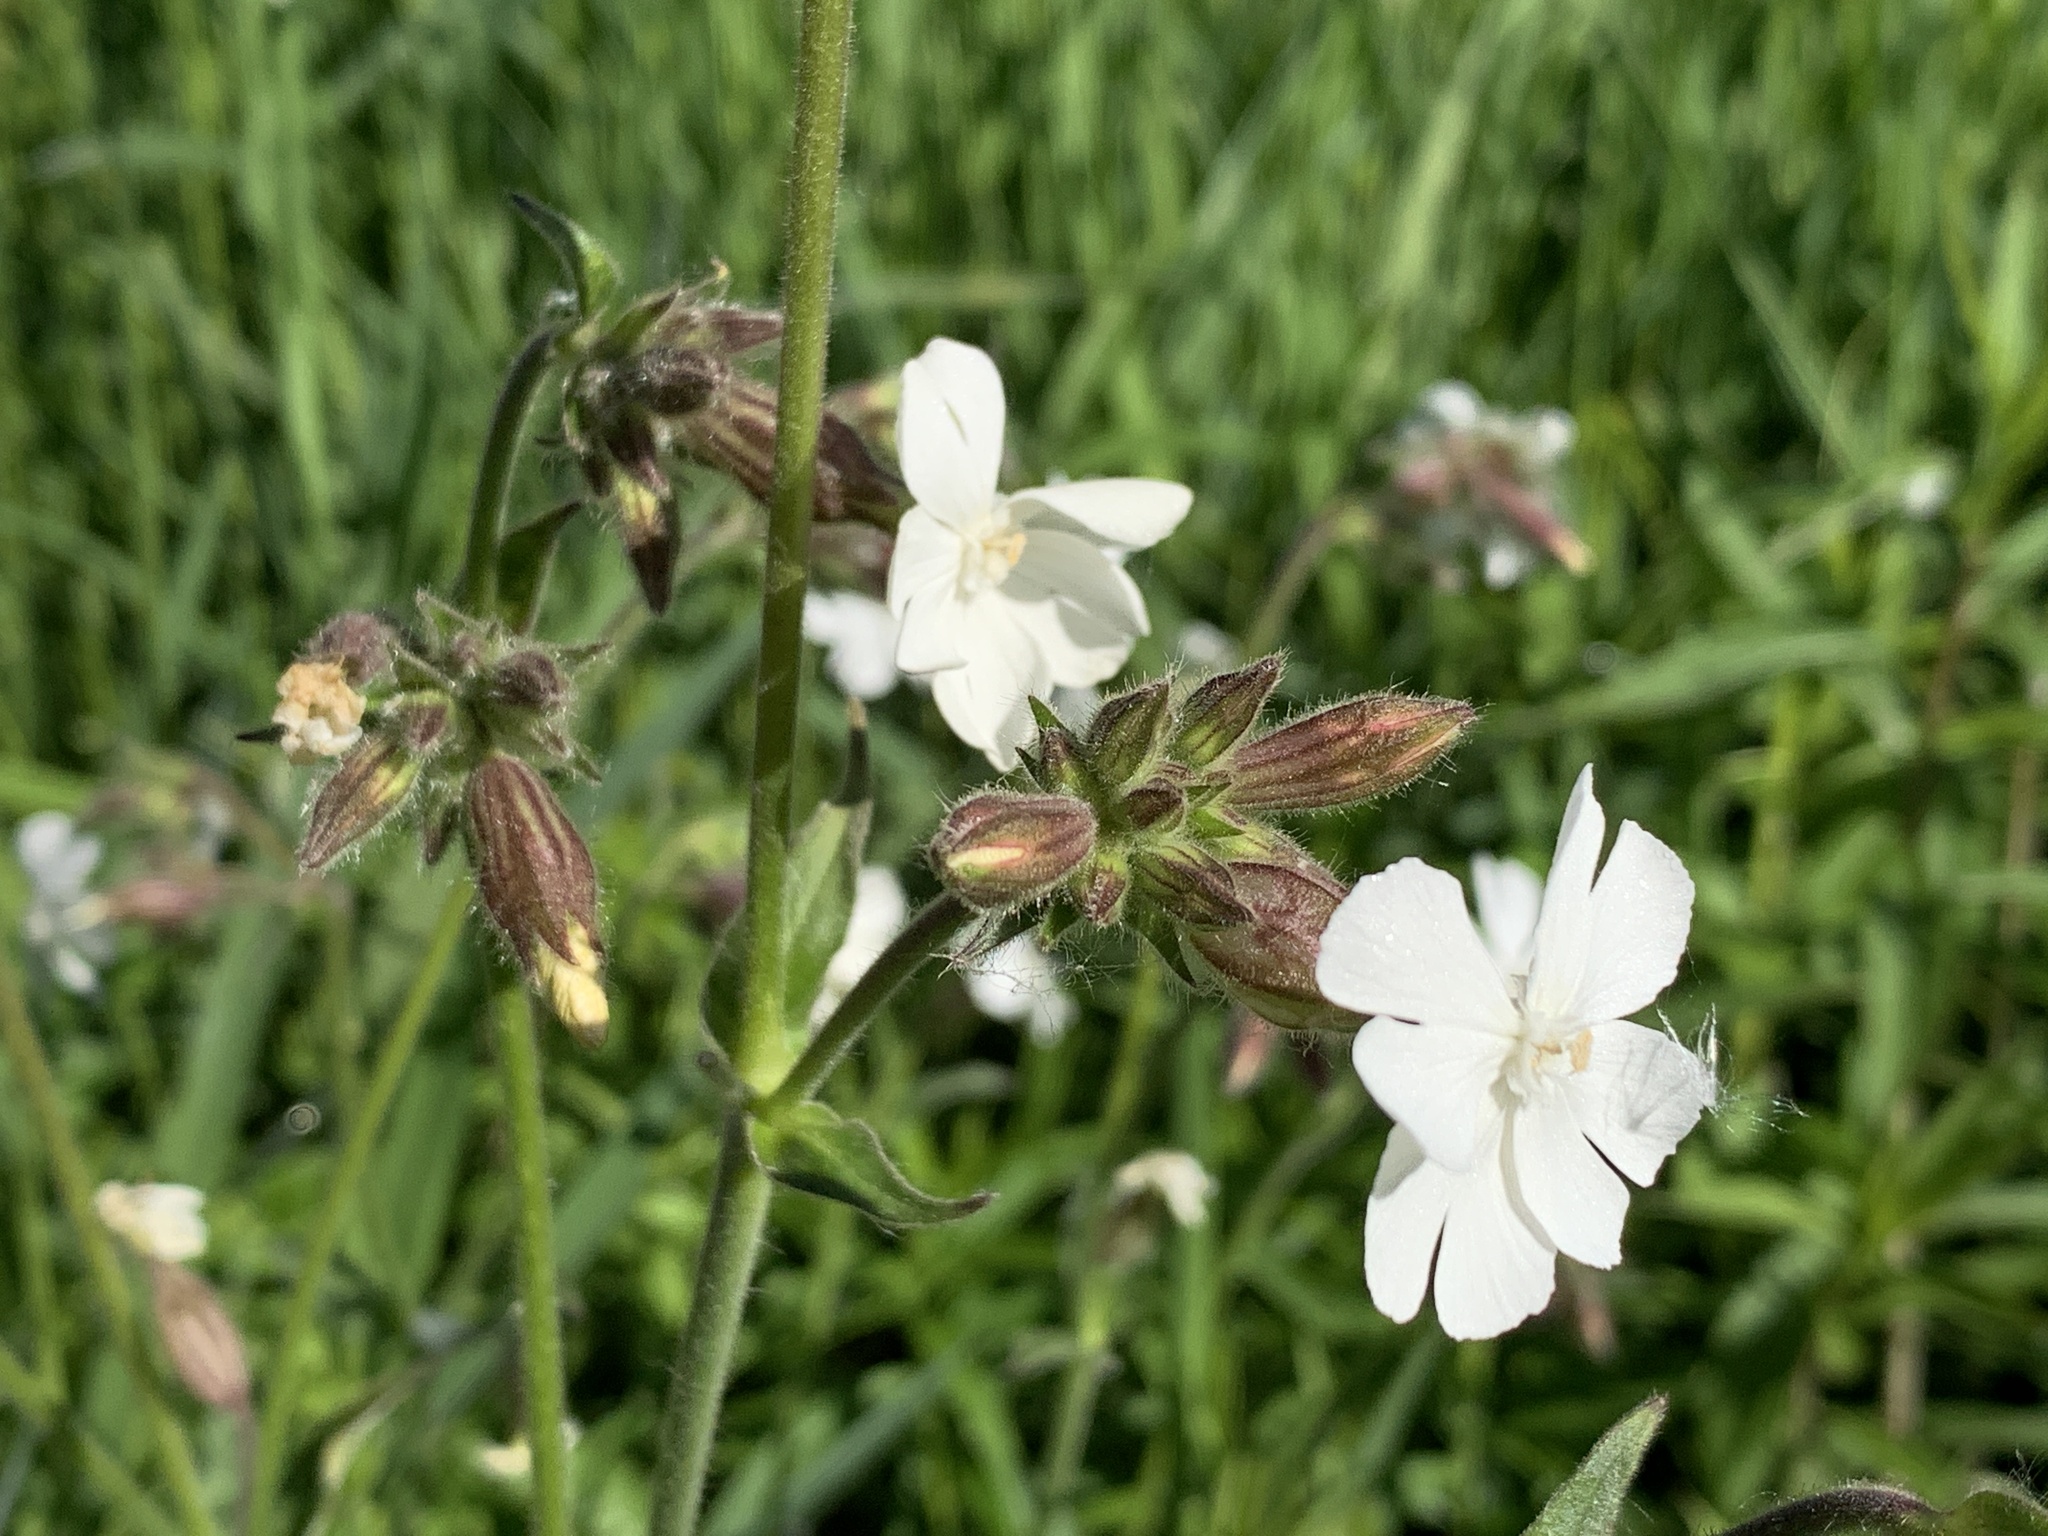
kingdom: Plantae
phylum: Tracheophyta
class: Magnoliopsida
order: Caryophyllales
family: Caryophyllaceae
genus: Silene
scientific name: Silene latifolia
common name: White campion
